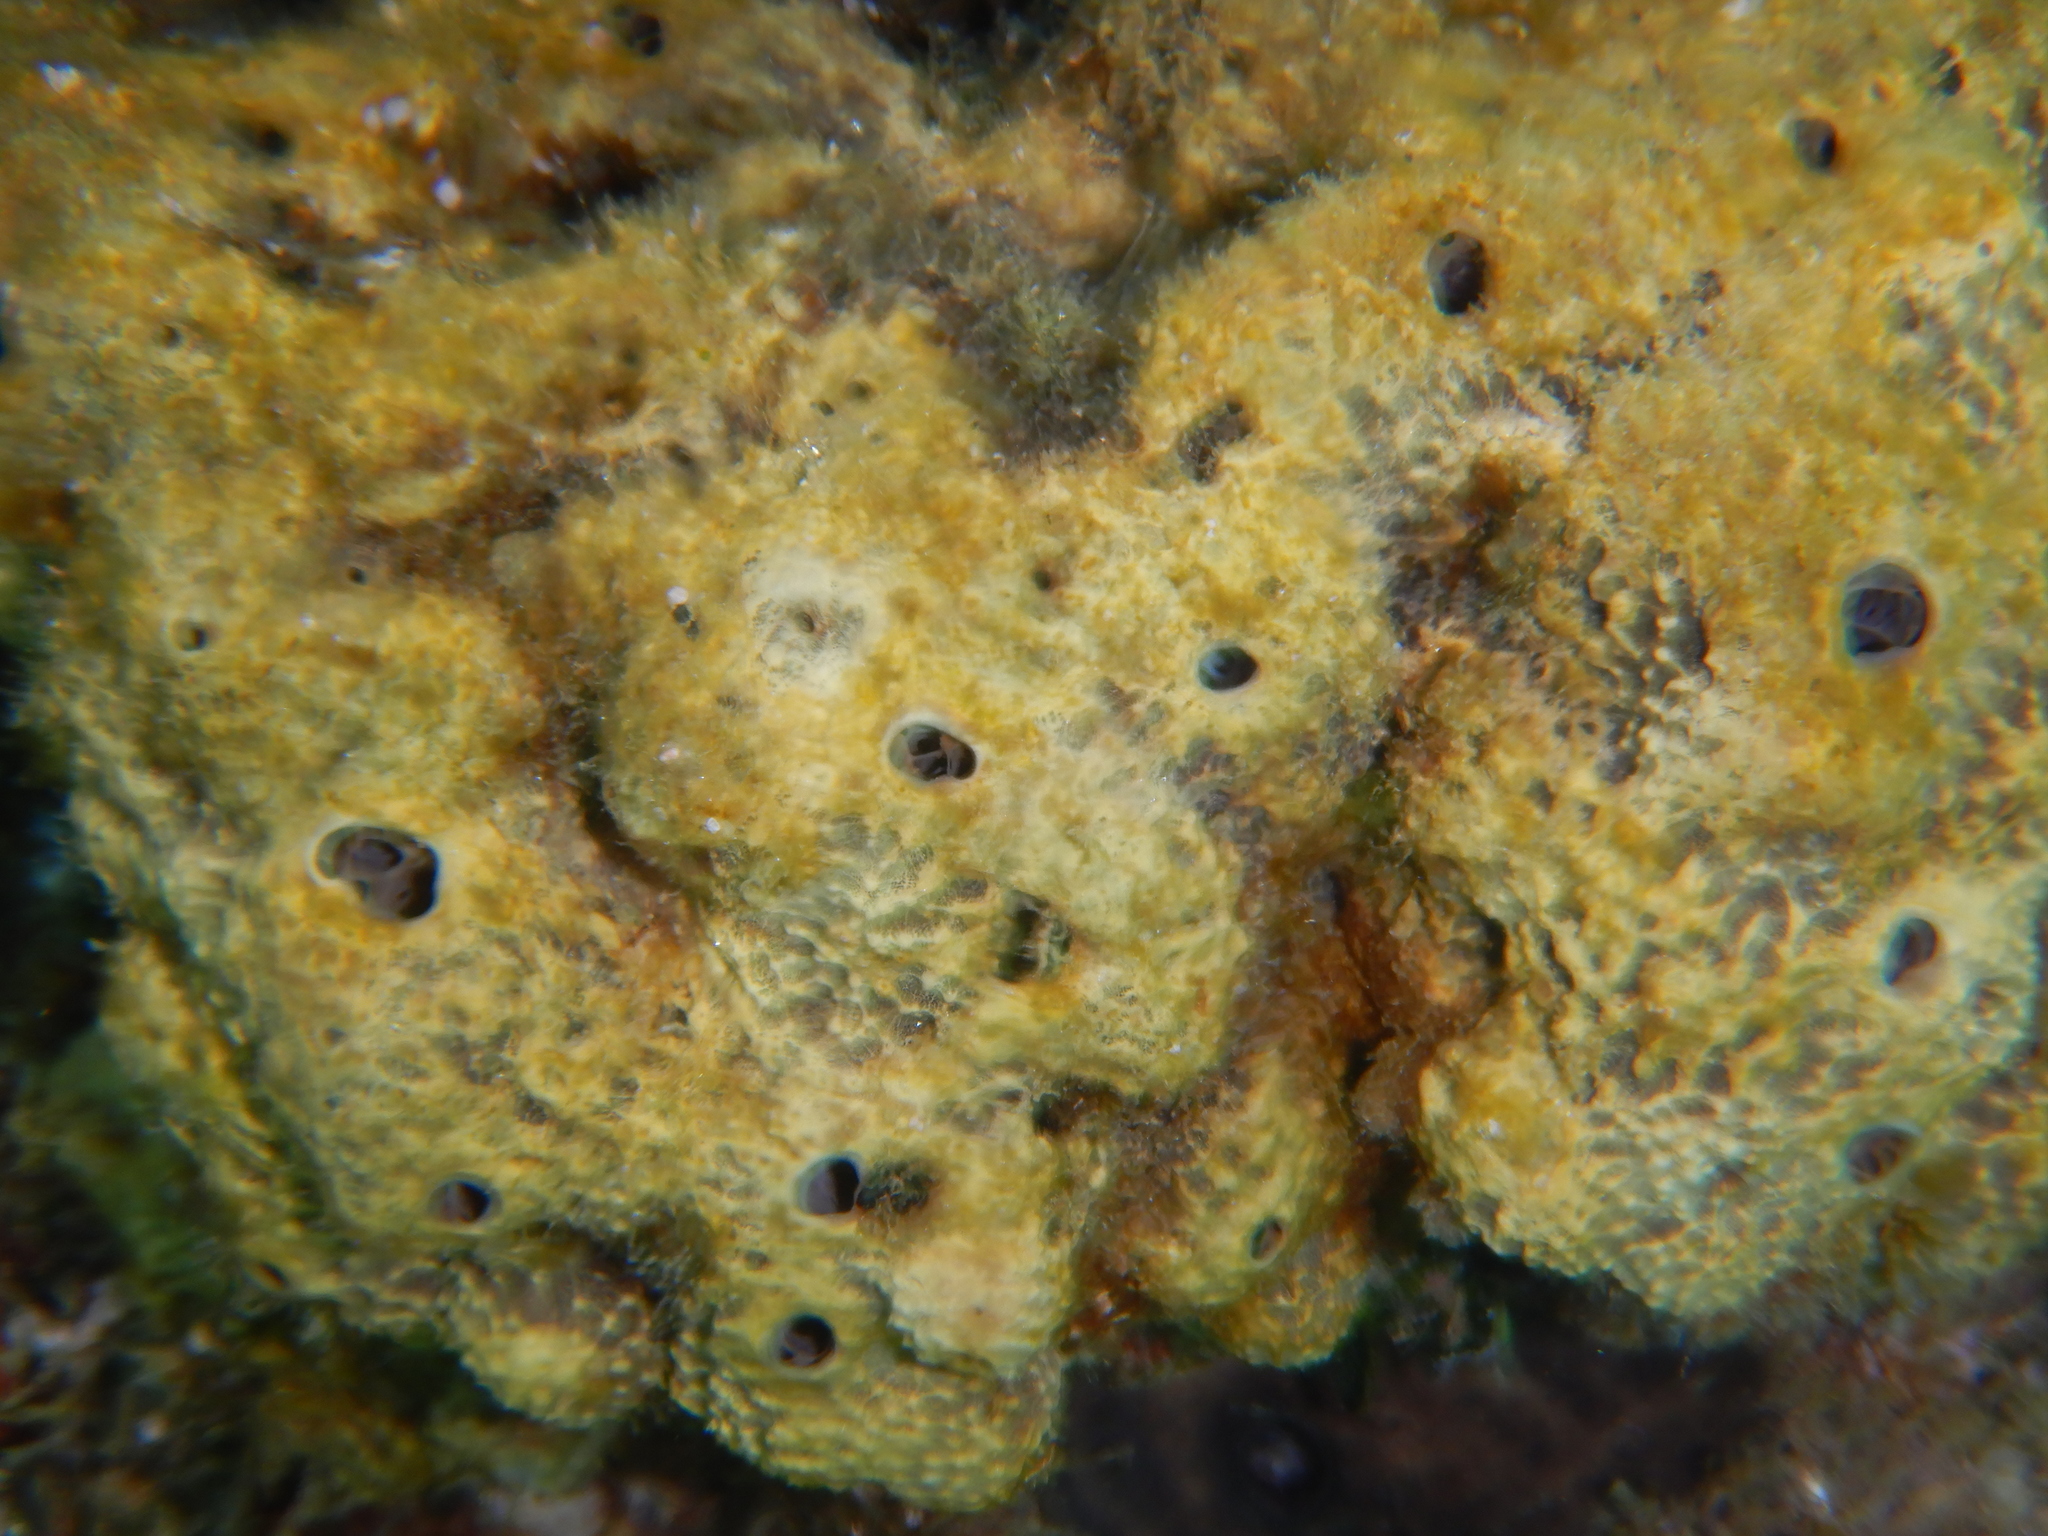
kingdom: Animalia
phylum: Porifera
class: Demospongiae
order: Dictyoceratida
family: Irciniidae
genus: Ircinia
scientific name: Ircinia variabilis
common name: Variable loggerhead sponge
